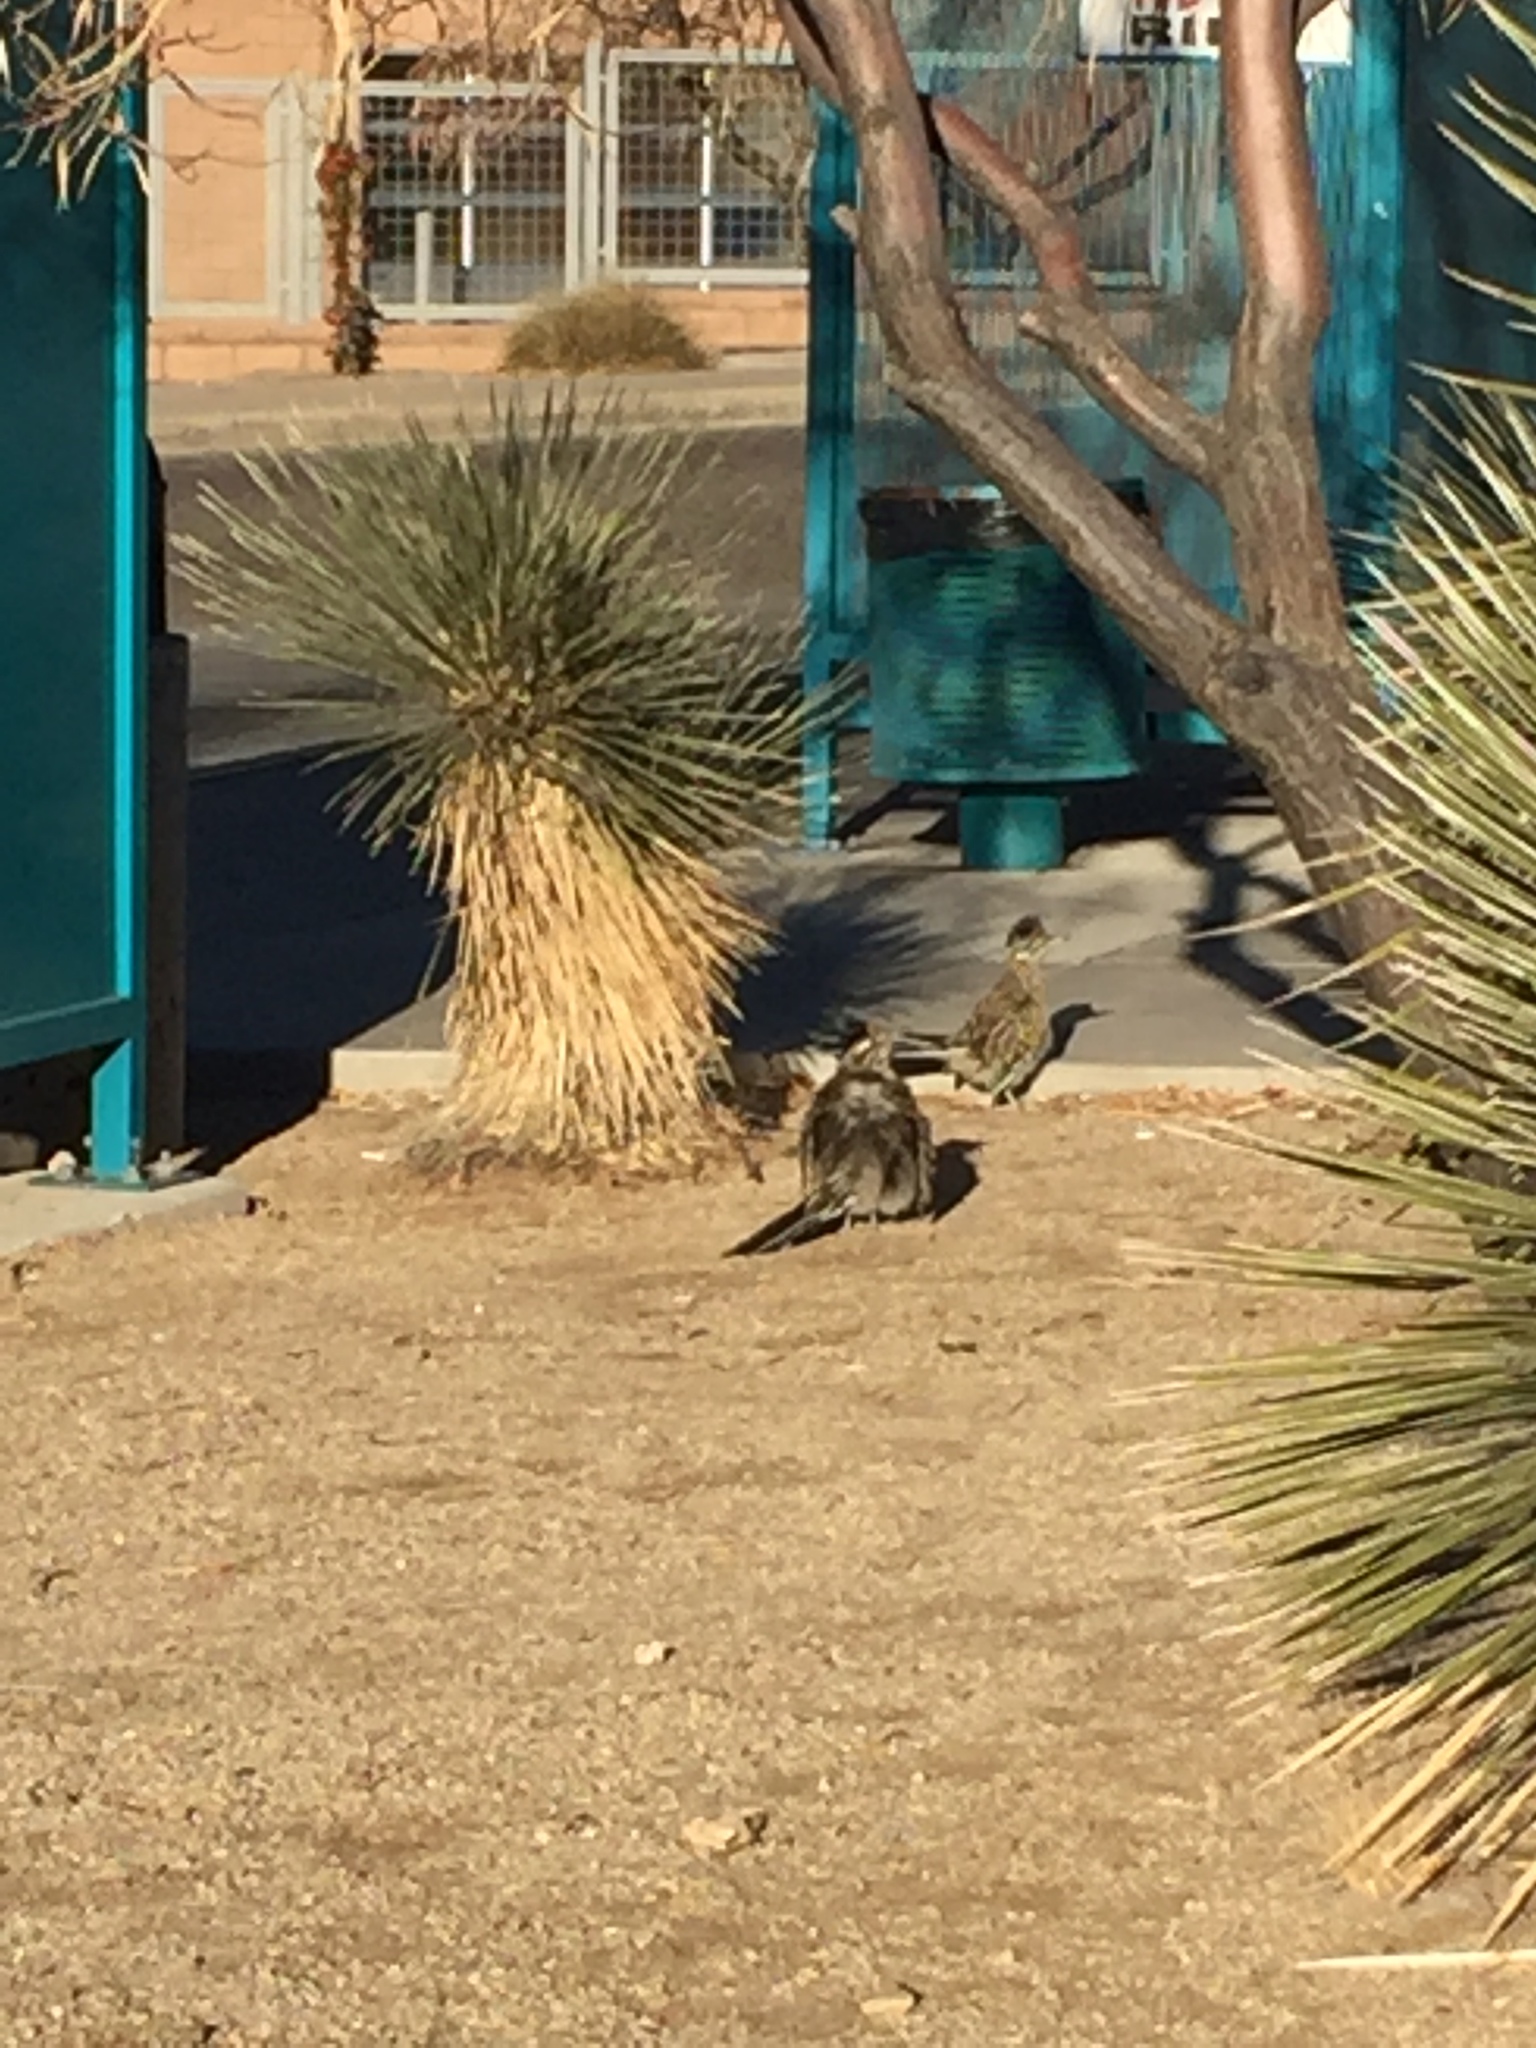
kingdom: Animalia
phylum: Chordata
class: Aves
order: Cuculiformes
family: Cuculidae
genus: Geococcyx
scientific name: Geococcyx californianus
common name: Greater roadrunner
